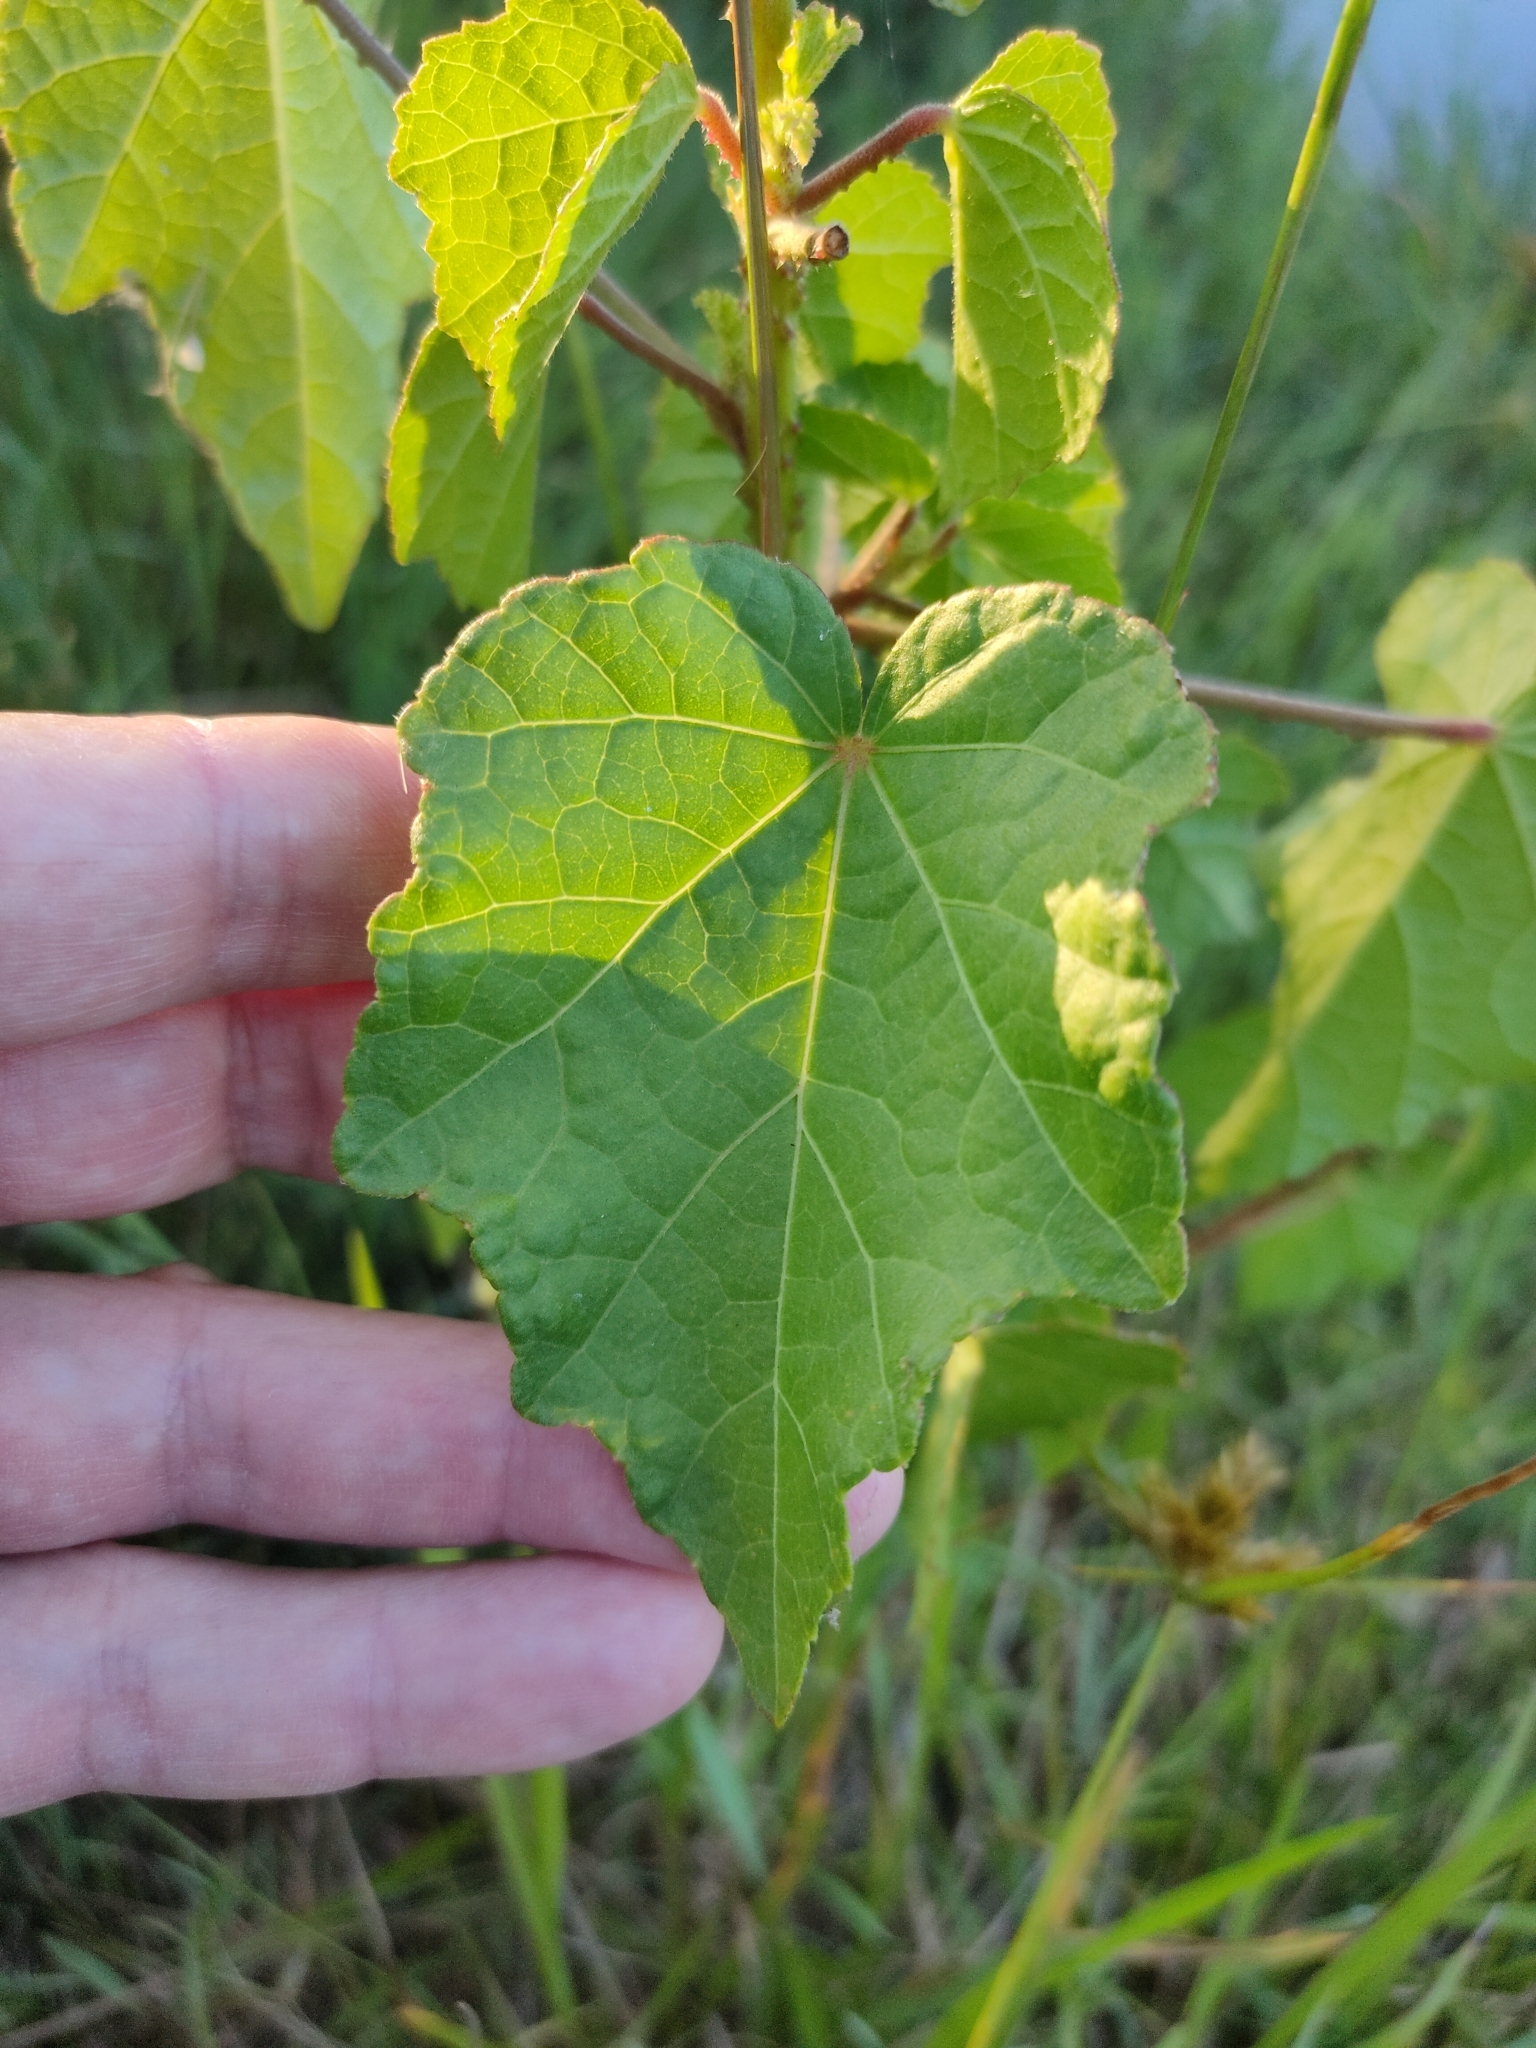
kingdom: Plantae
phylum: Tracheophyta
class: Magnoliopsida
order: Malvales
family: Malvaceae
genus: Hibiscus
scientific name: Hibiscus diversifolius
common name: Cape hibiscus
